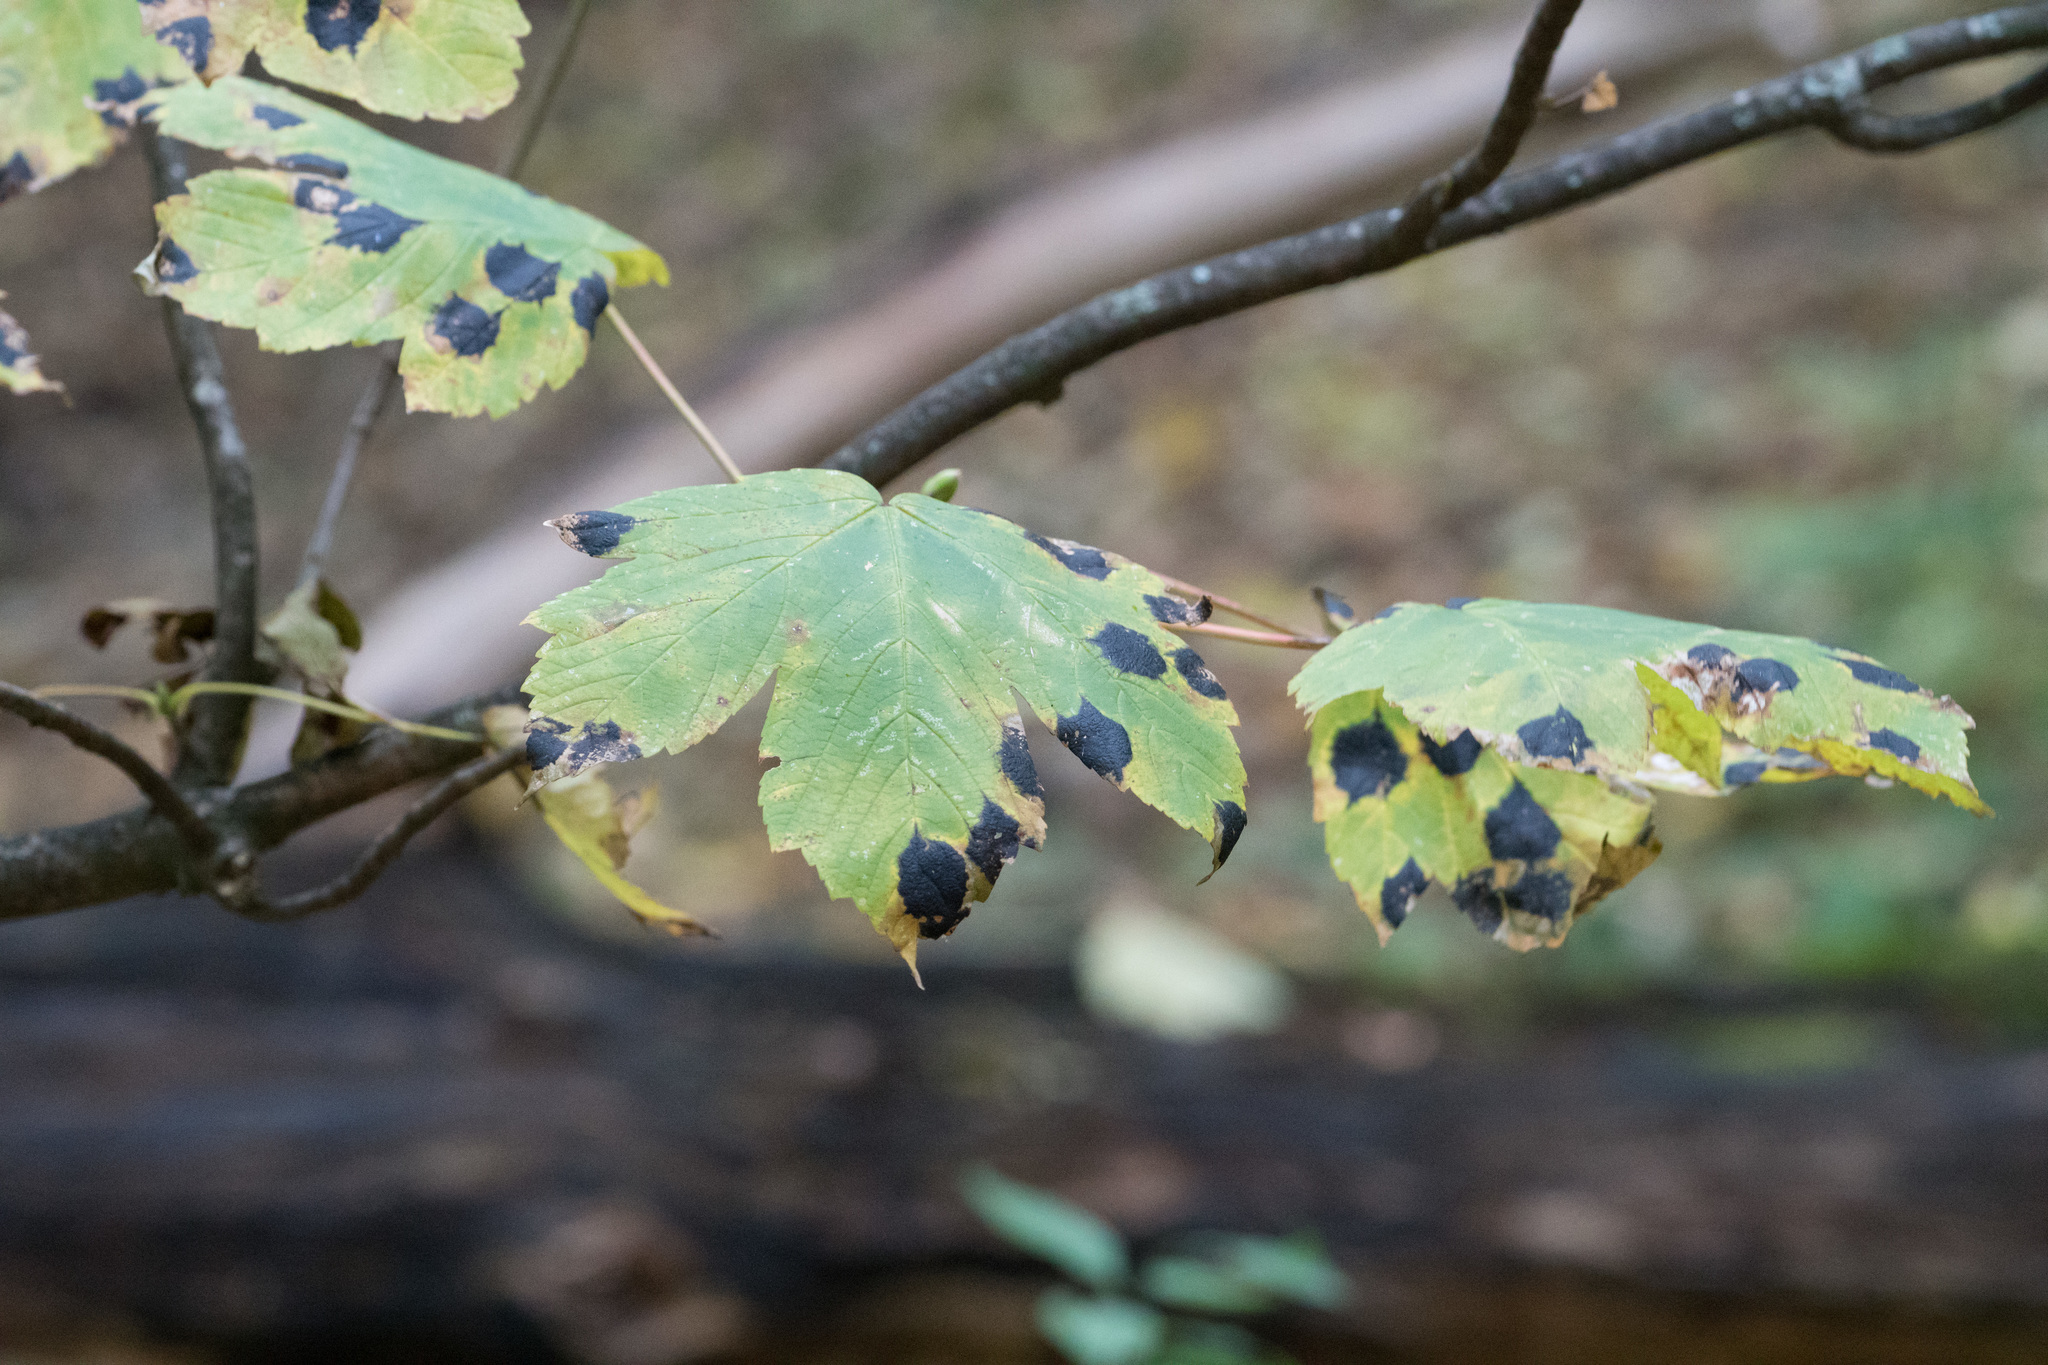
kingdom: Fungi
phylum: Ascomycota
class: Leotiomycetes
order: Rhytismatales
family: Rhytismataceae
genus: Rhytisma
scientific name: Rhytisma acerinum
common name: European tar spot
